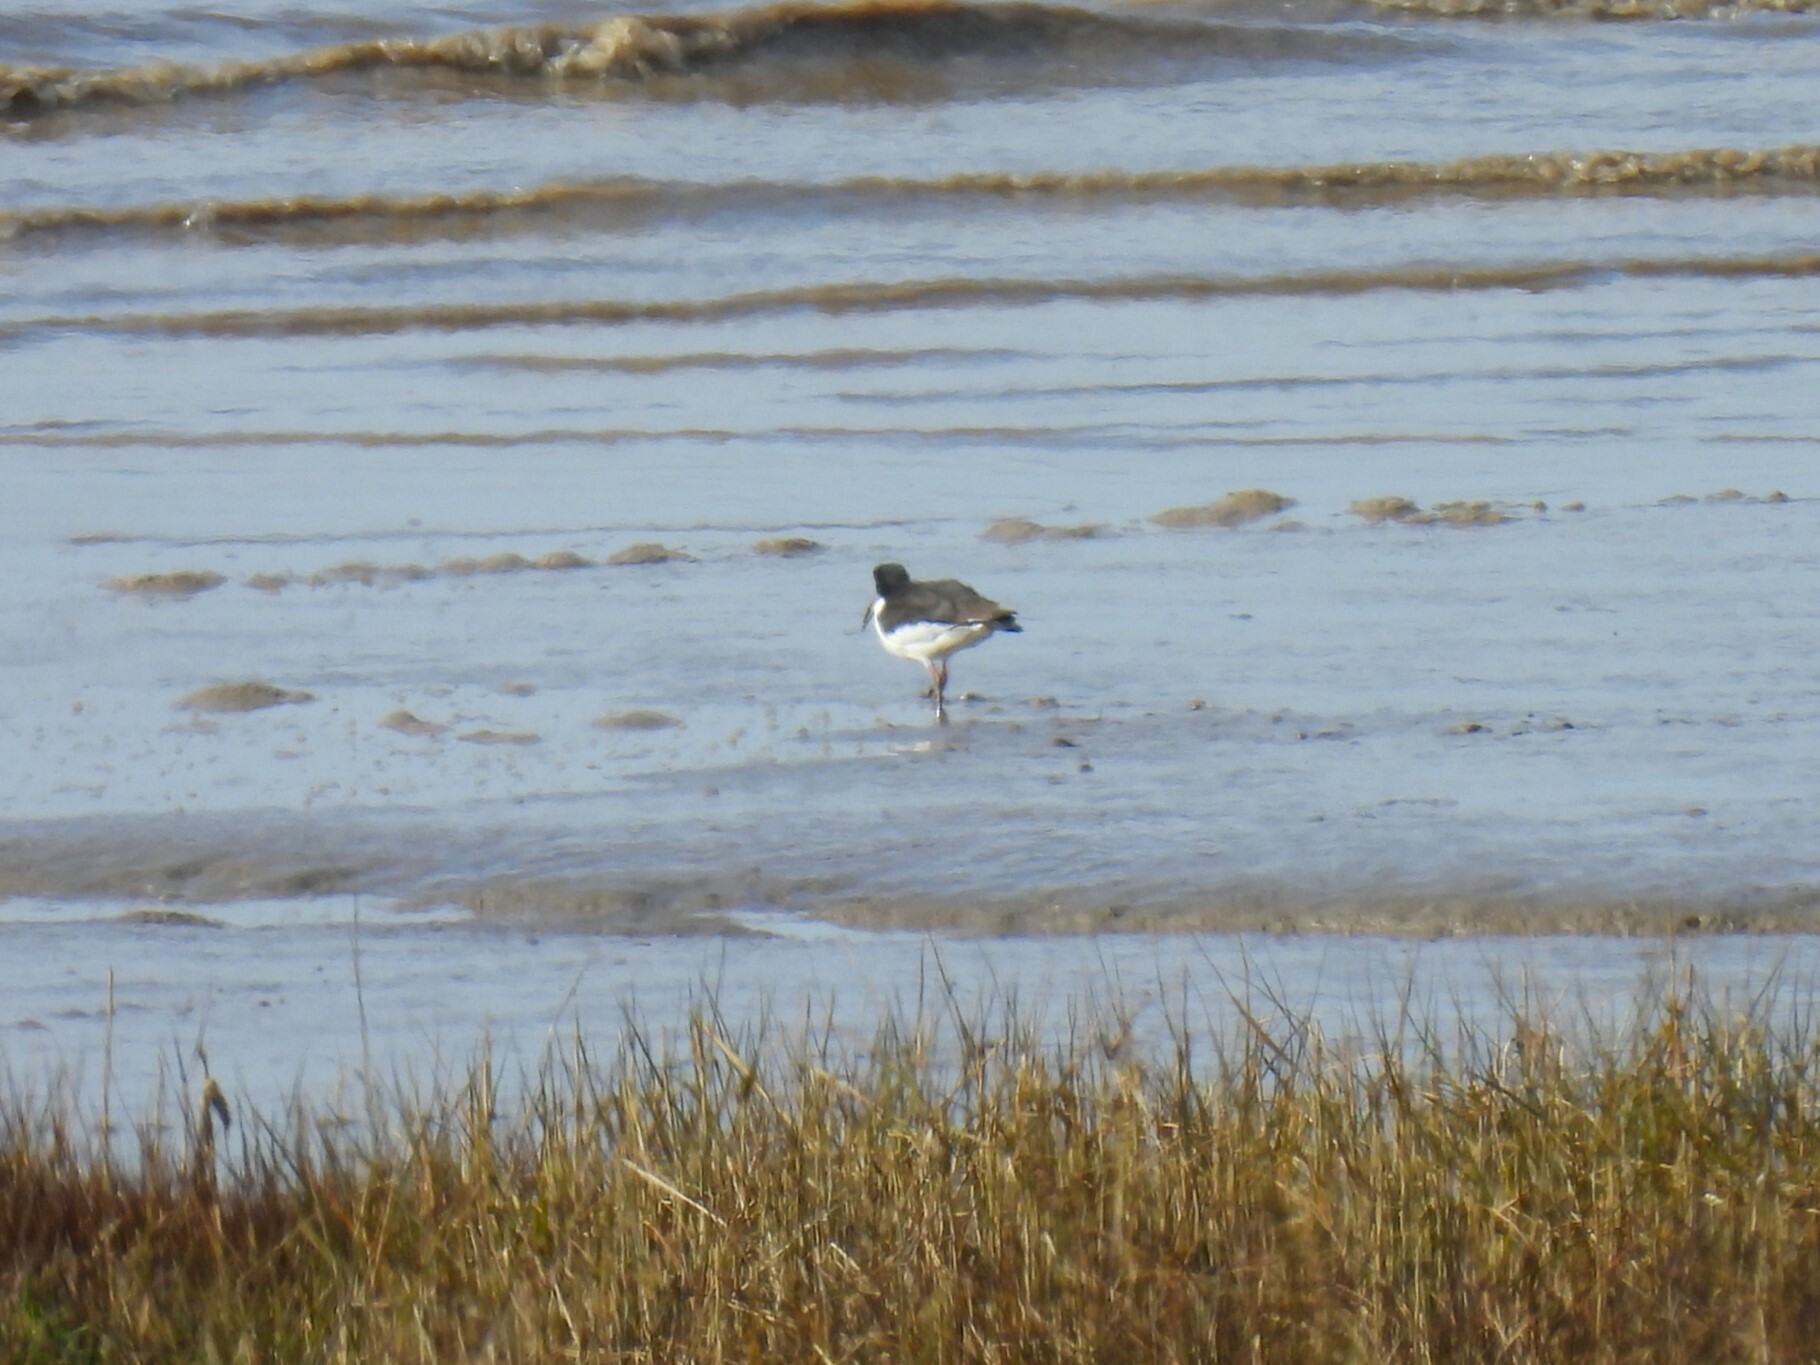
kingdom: Animalia
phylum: Chordata
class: Aves
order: Charadriiformes
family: Haematopodidae
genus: Haematopus
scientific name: Haematopus ostralegus
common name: Eurasian oystercatcher
